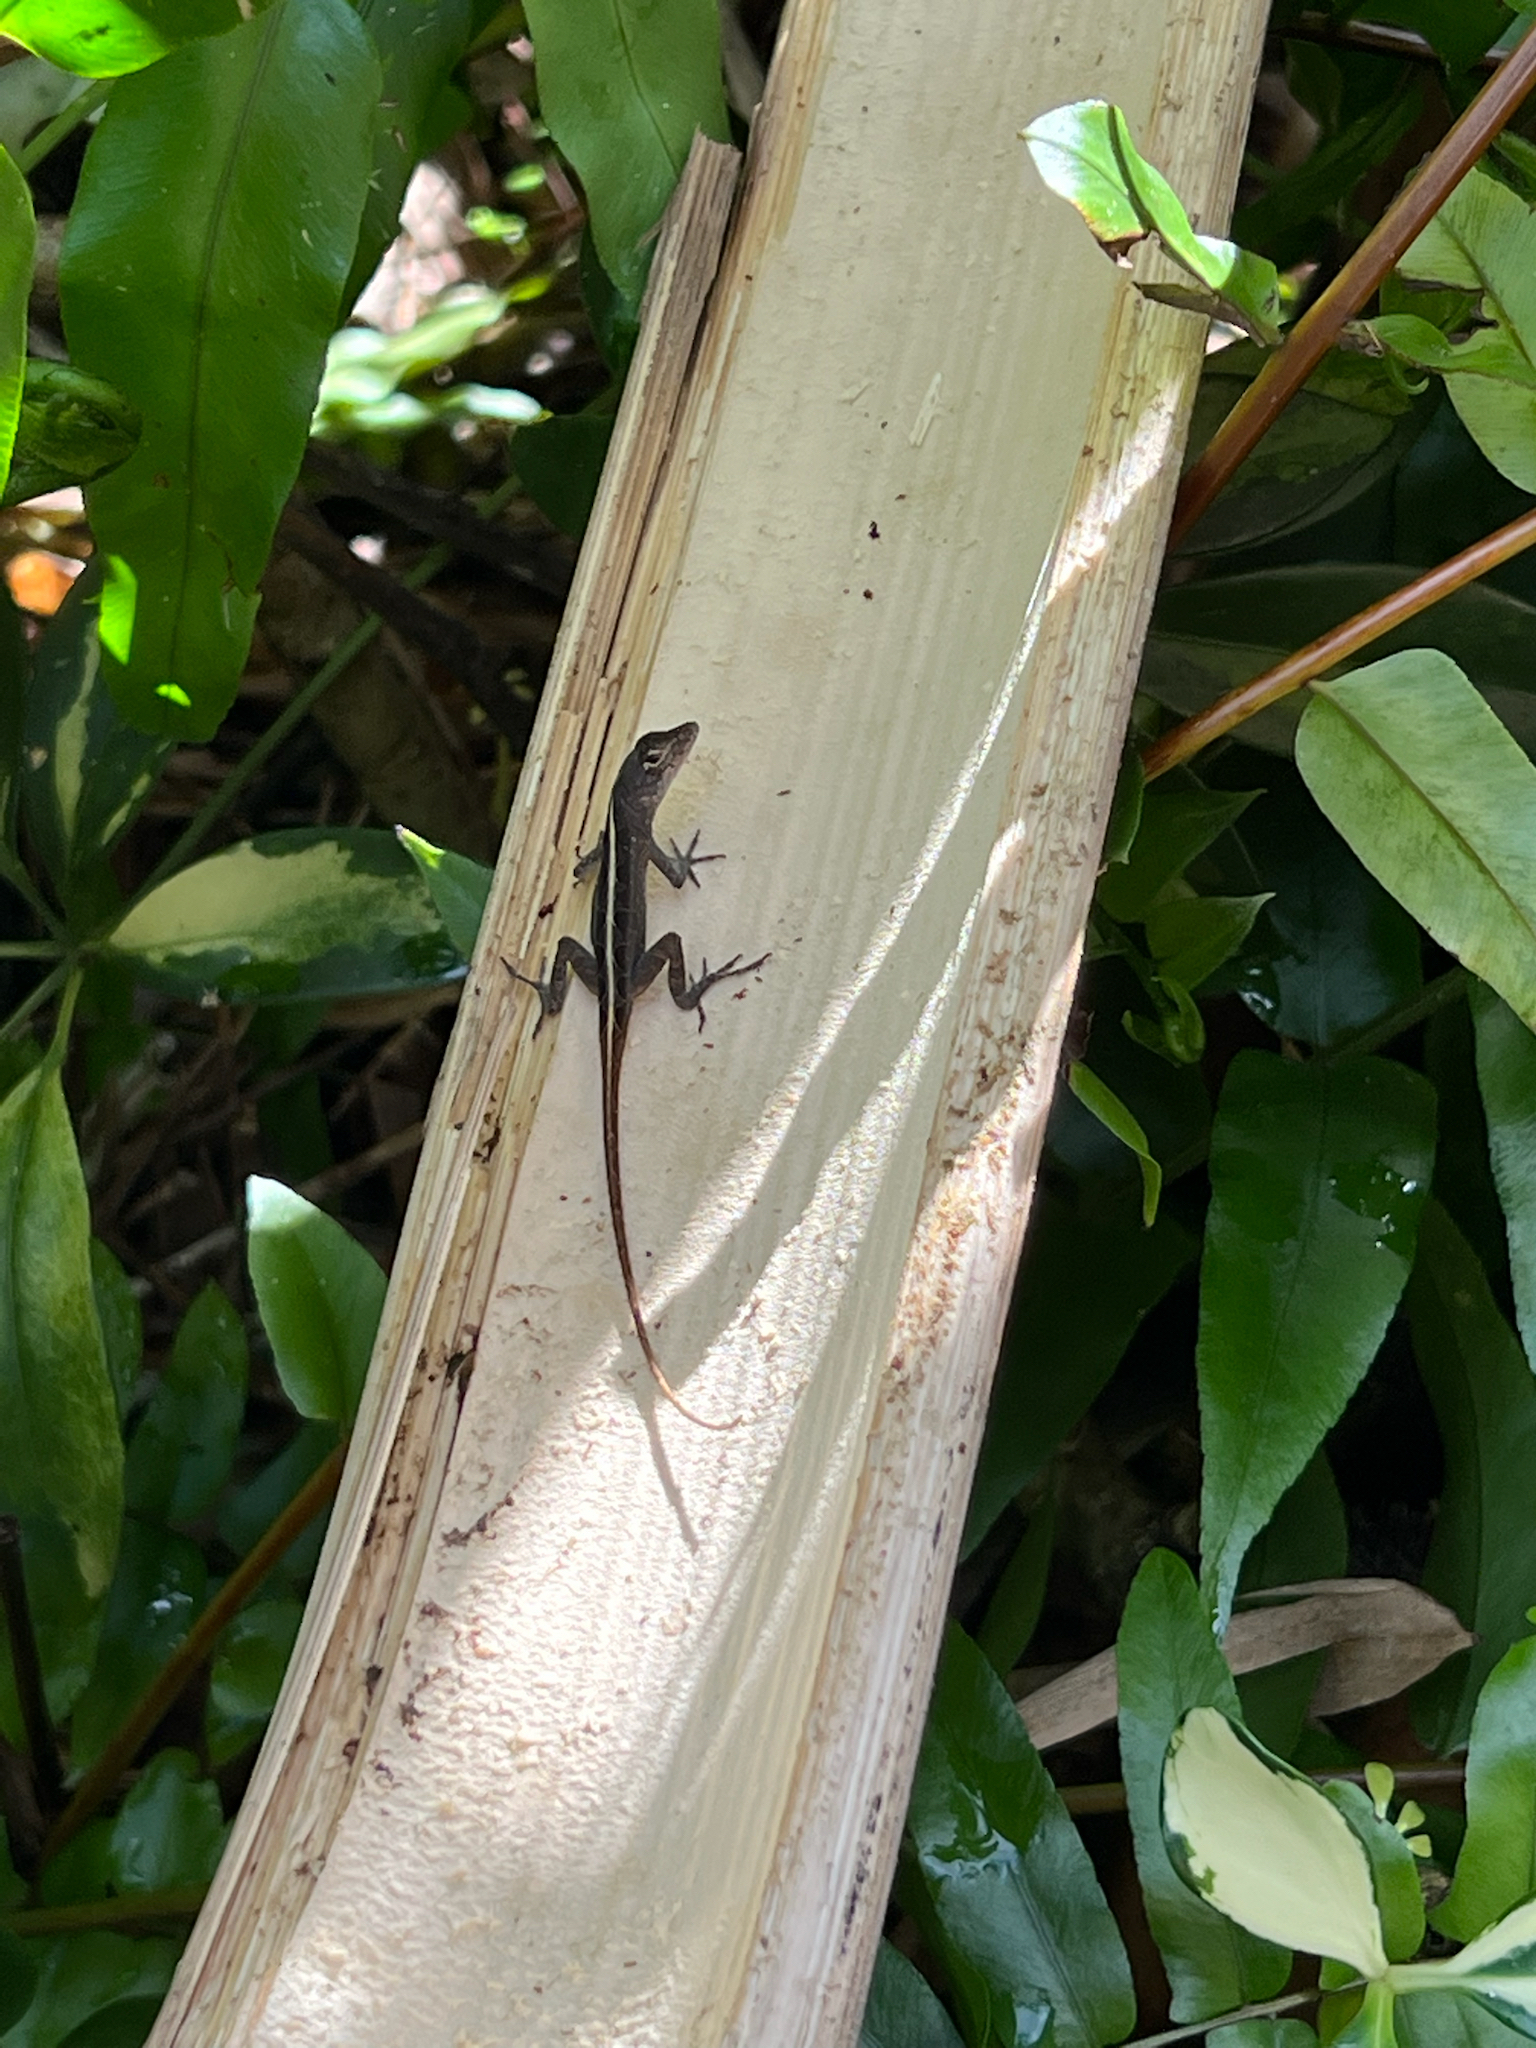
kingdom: Animalia
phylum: Chordata
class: Squamata
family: Dactyloidae
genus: Anolis
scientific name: Anolis sagrei
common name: Brown anole
